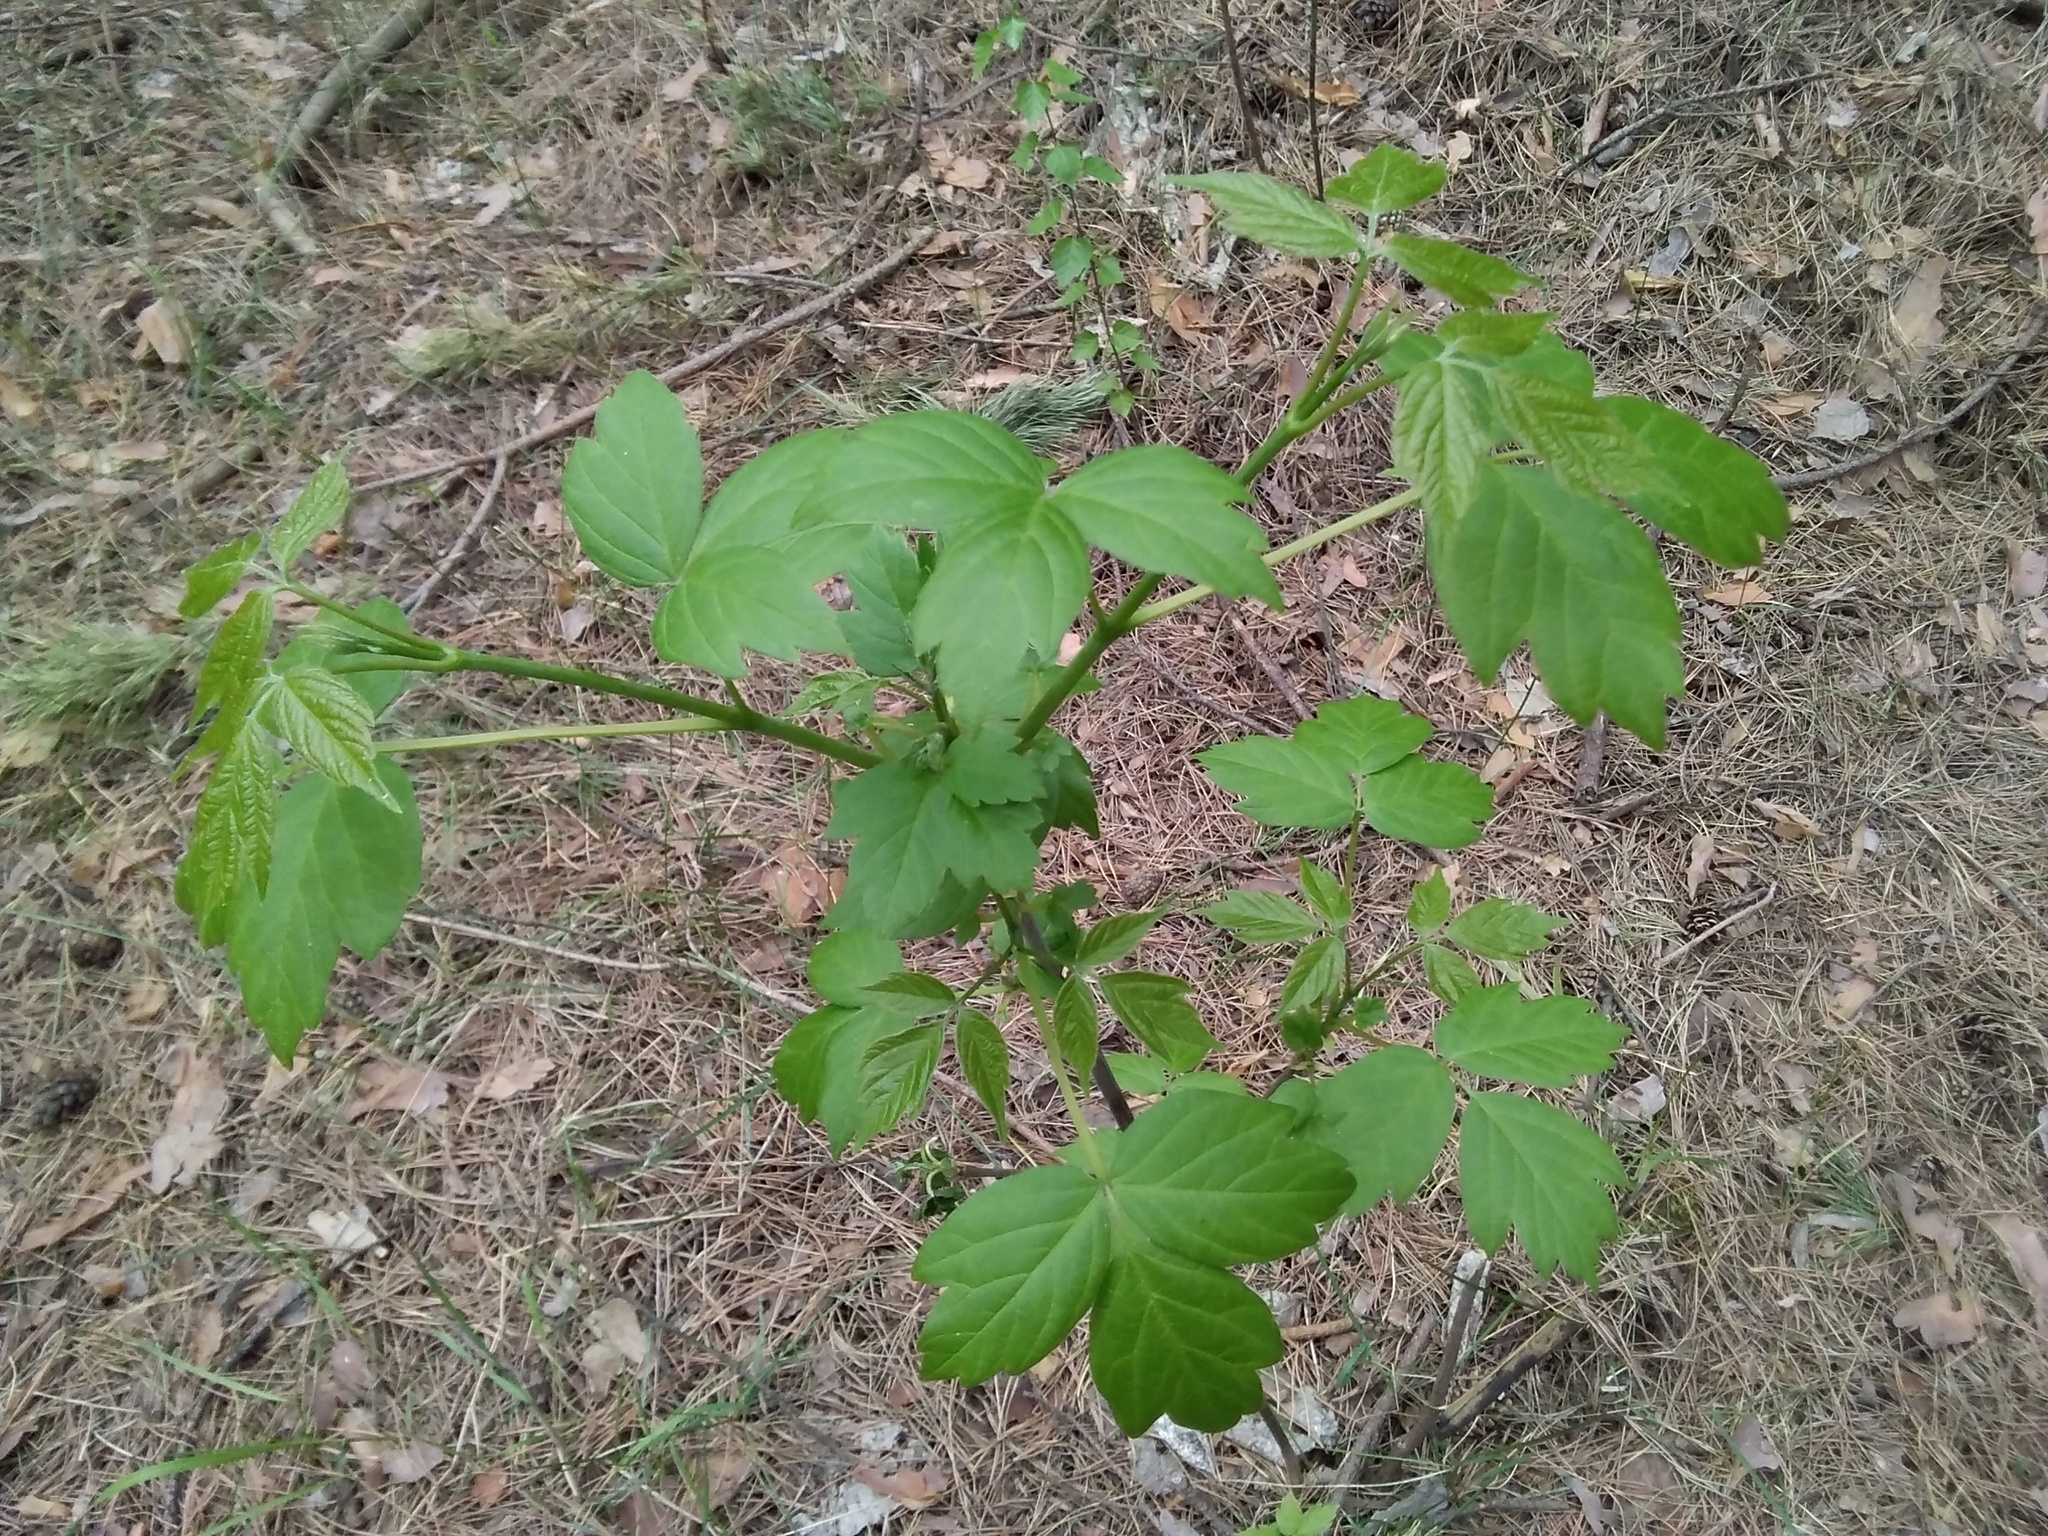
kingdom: Plantae
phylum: Tracheophyta
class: Magnoliopsida
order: Sapindales
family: Sapindaceae
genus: Acer
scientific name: Acer negundo
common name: Ashleaf maple
